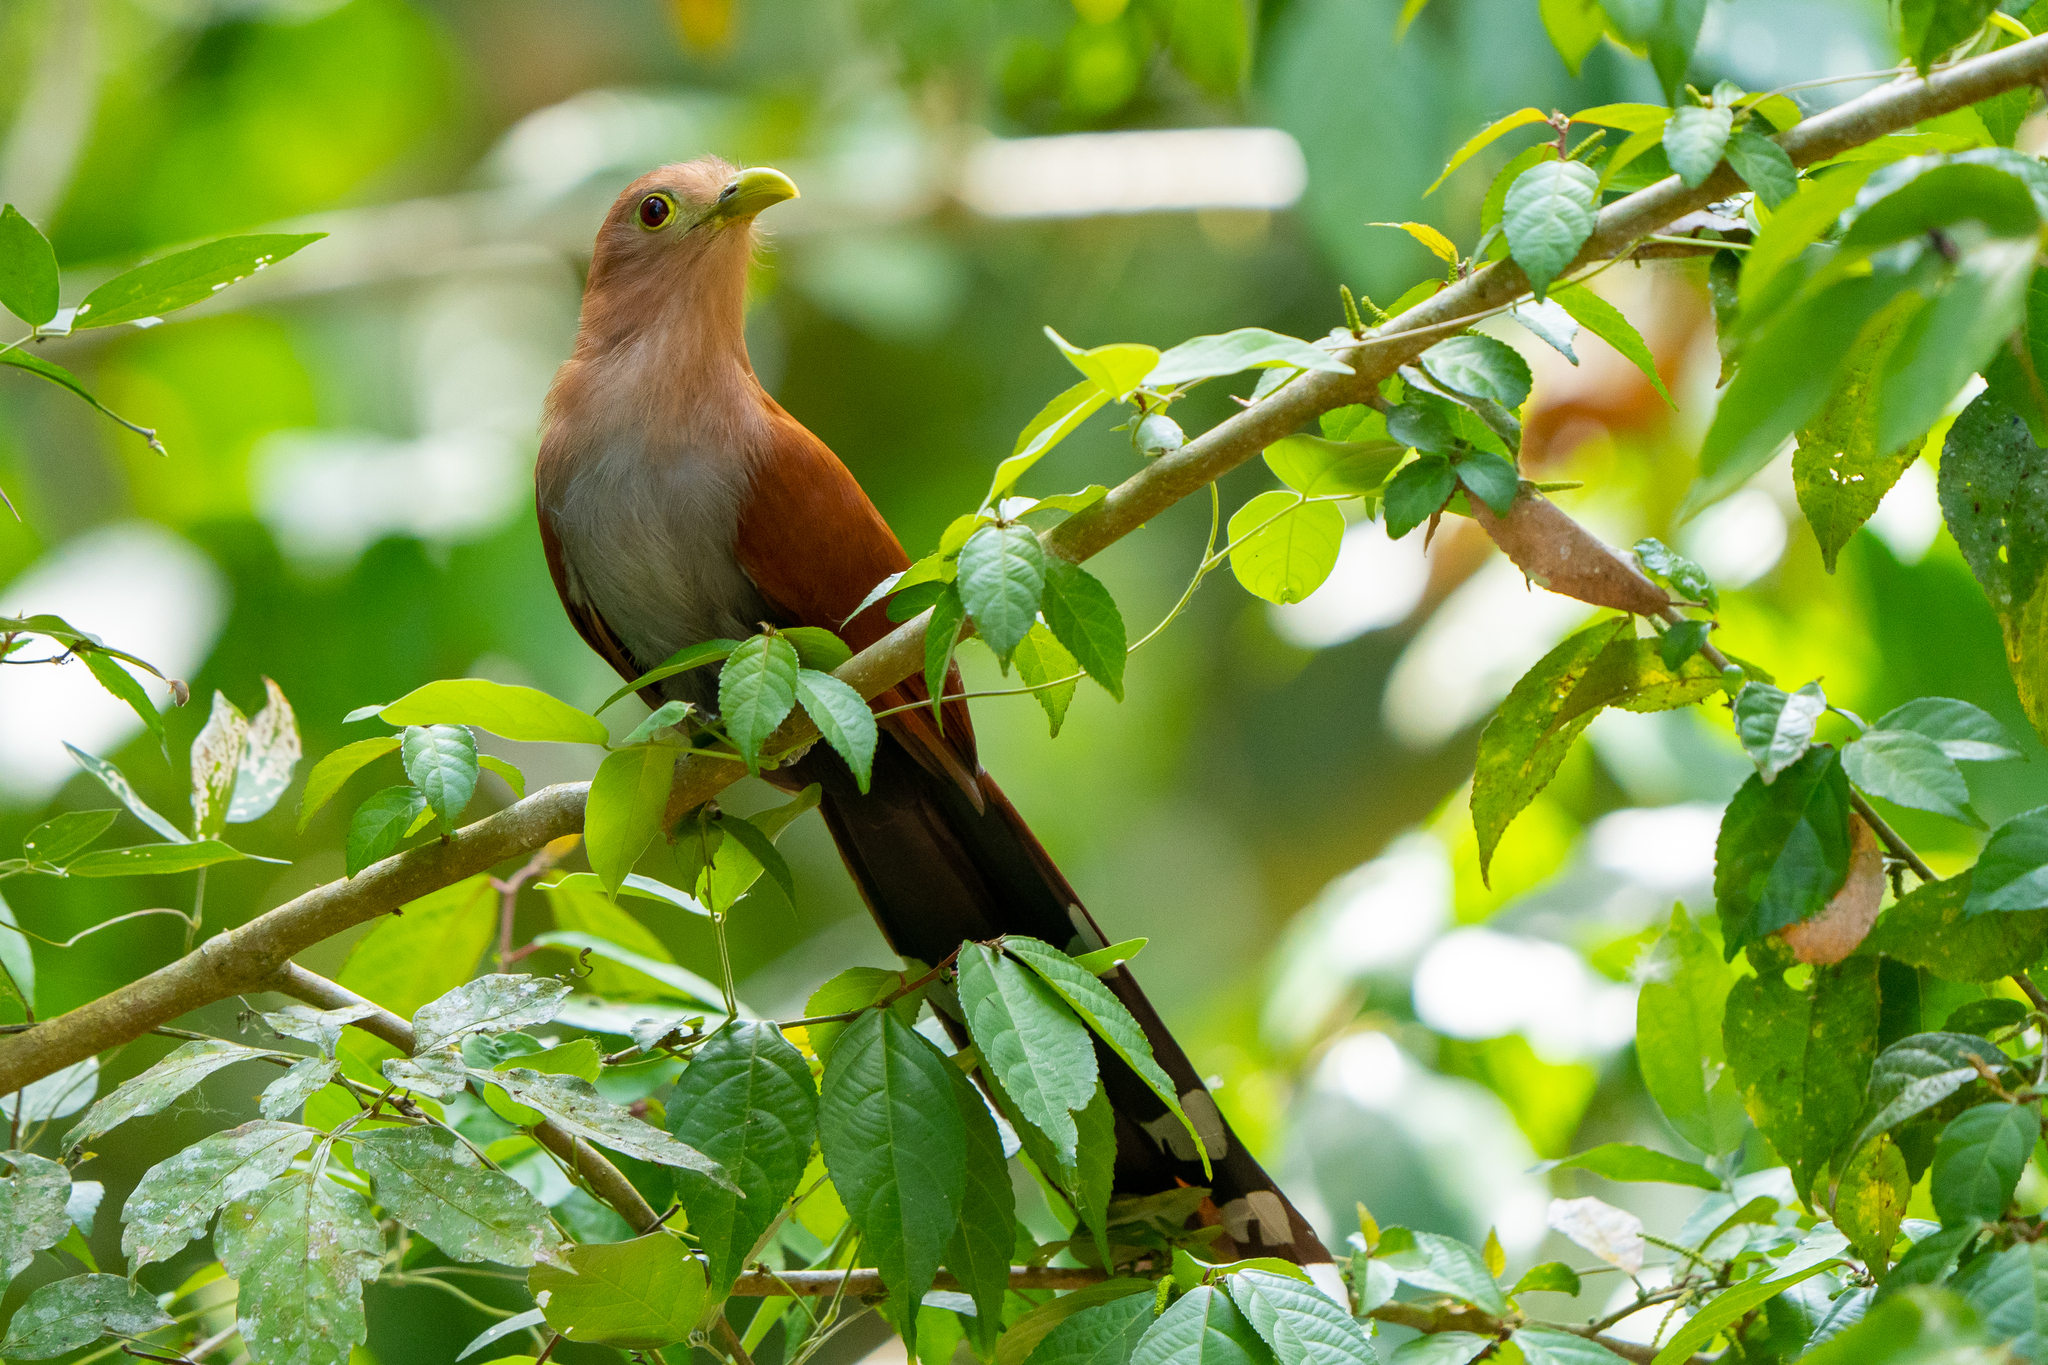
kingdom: Animalia
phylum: Chordata
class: Aves
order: Cuculiformes
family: Cuculidae
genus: Piaya
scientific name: Piaya cayana
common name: Squirrel cuckoo
